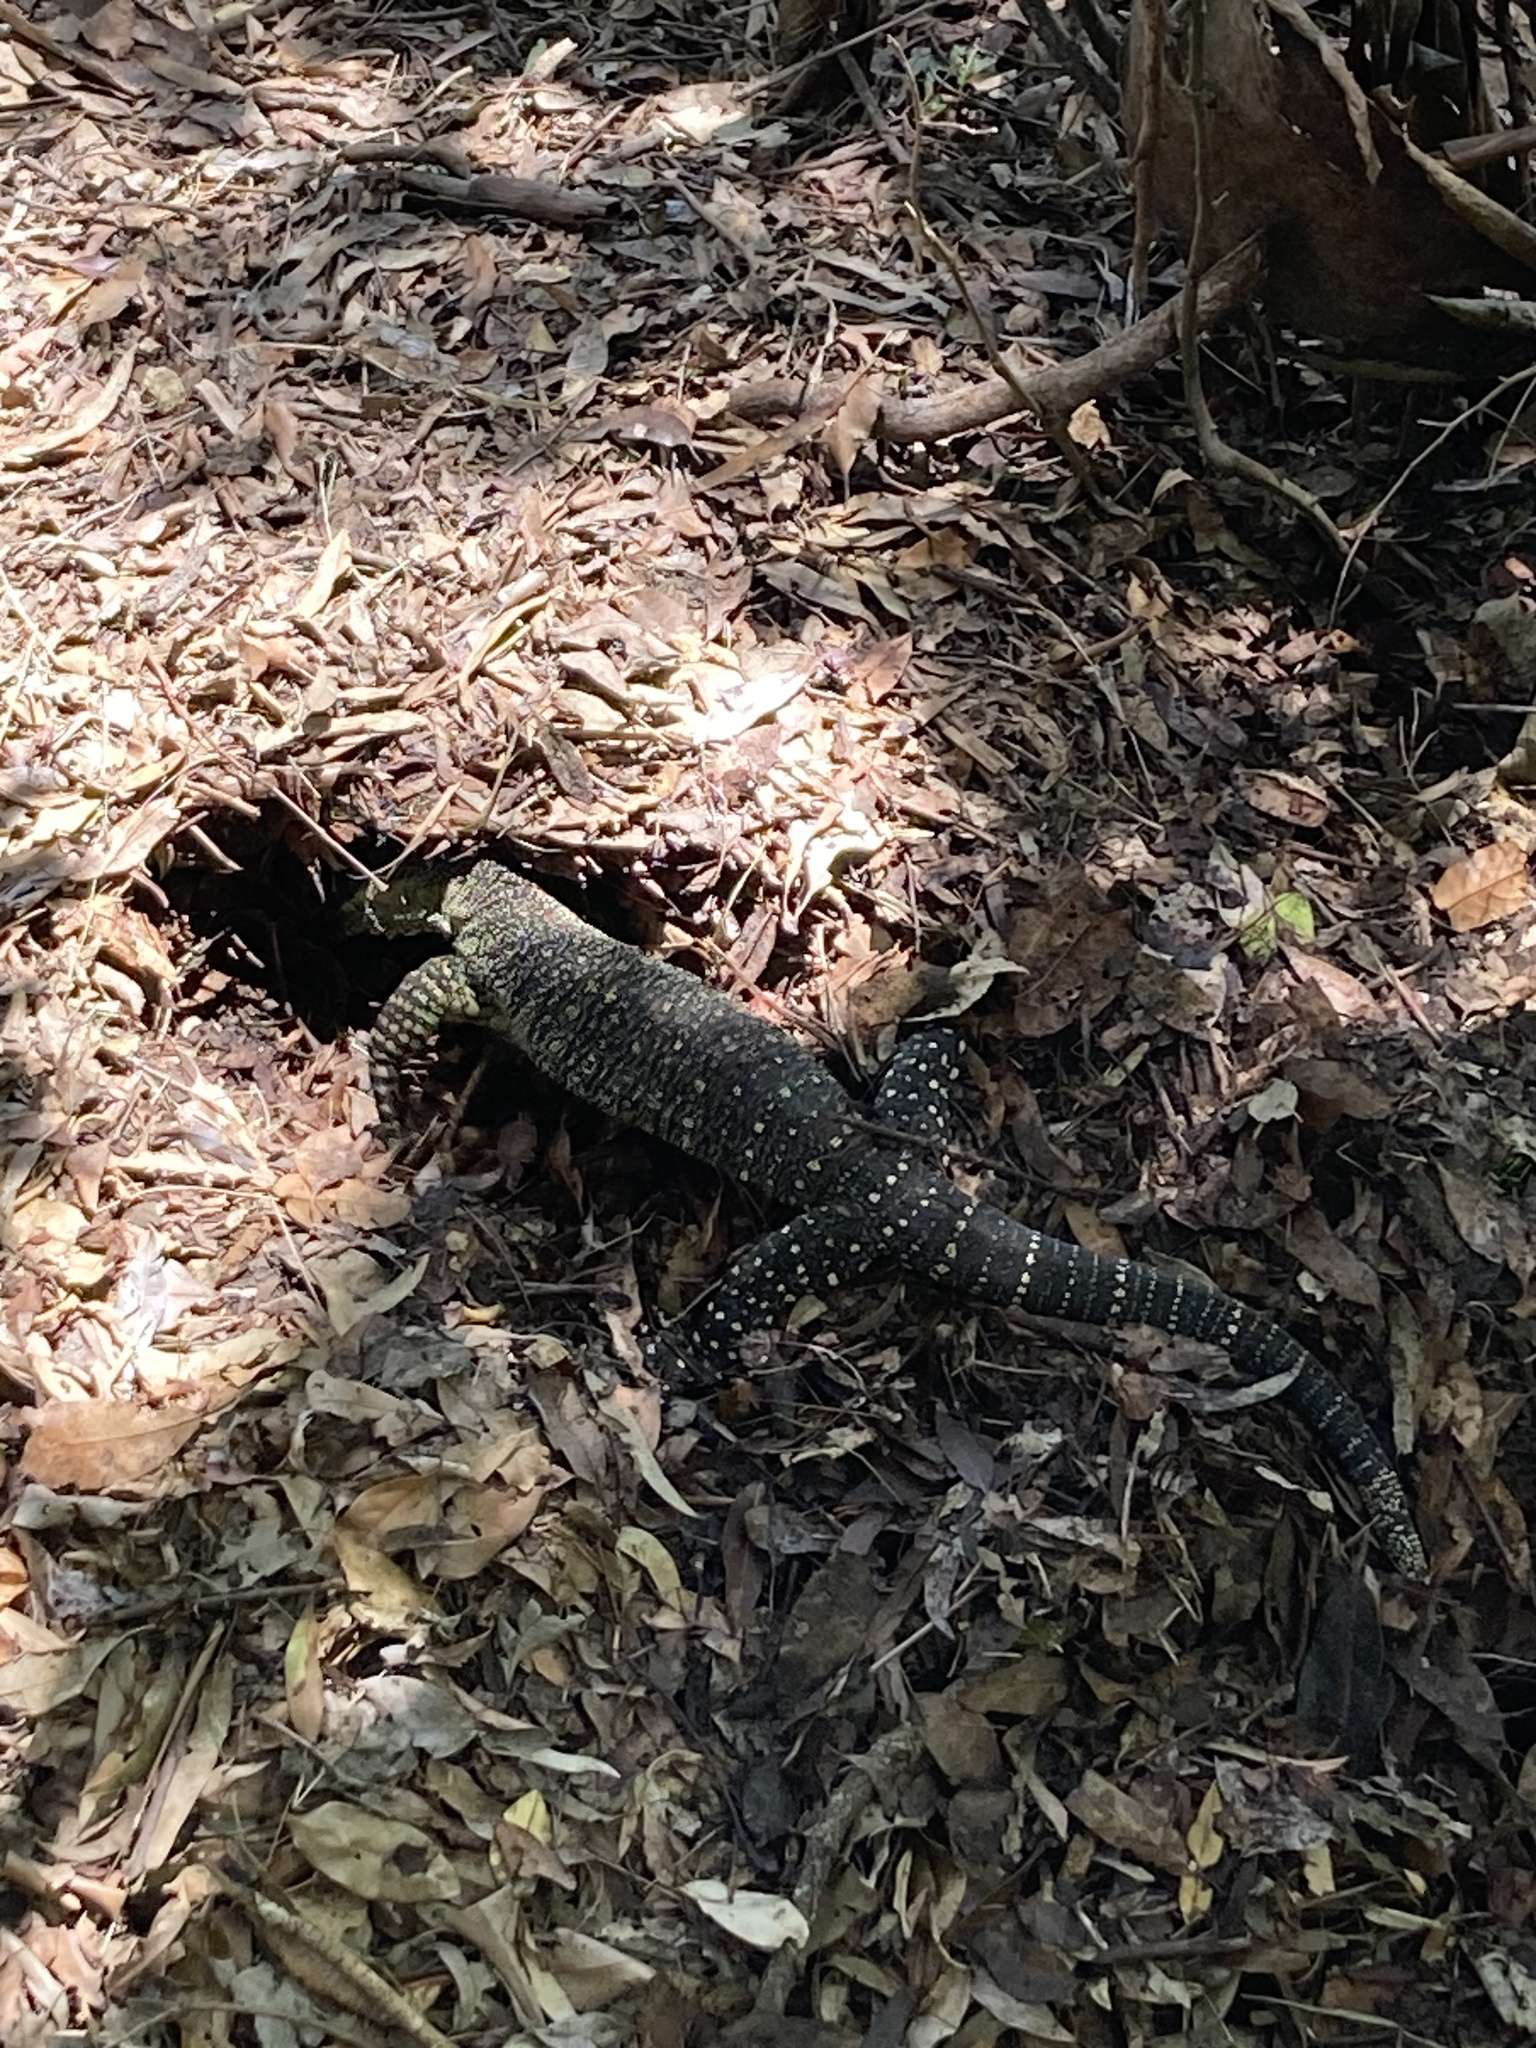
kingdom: Animalia
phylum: Chordata
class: Squamata
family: Varanidae
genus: Varanus
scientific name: Varanus varius
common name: Lace monitor
